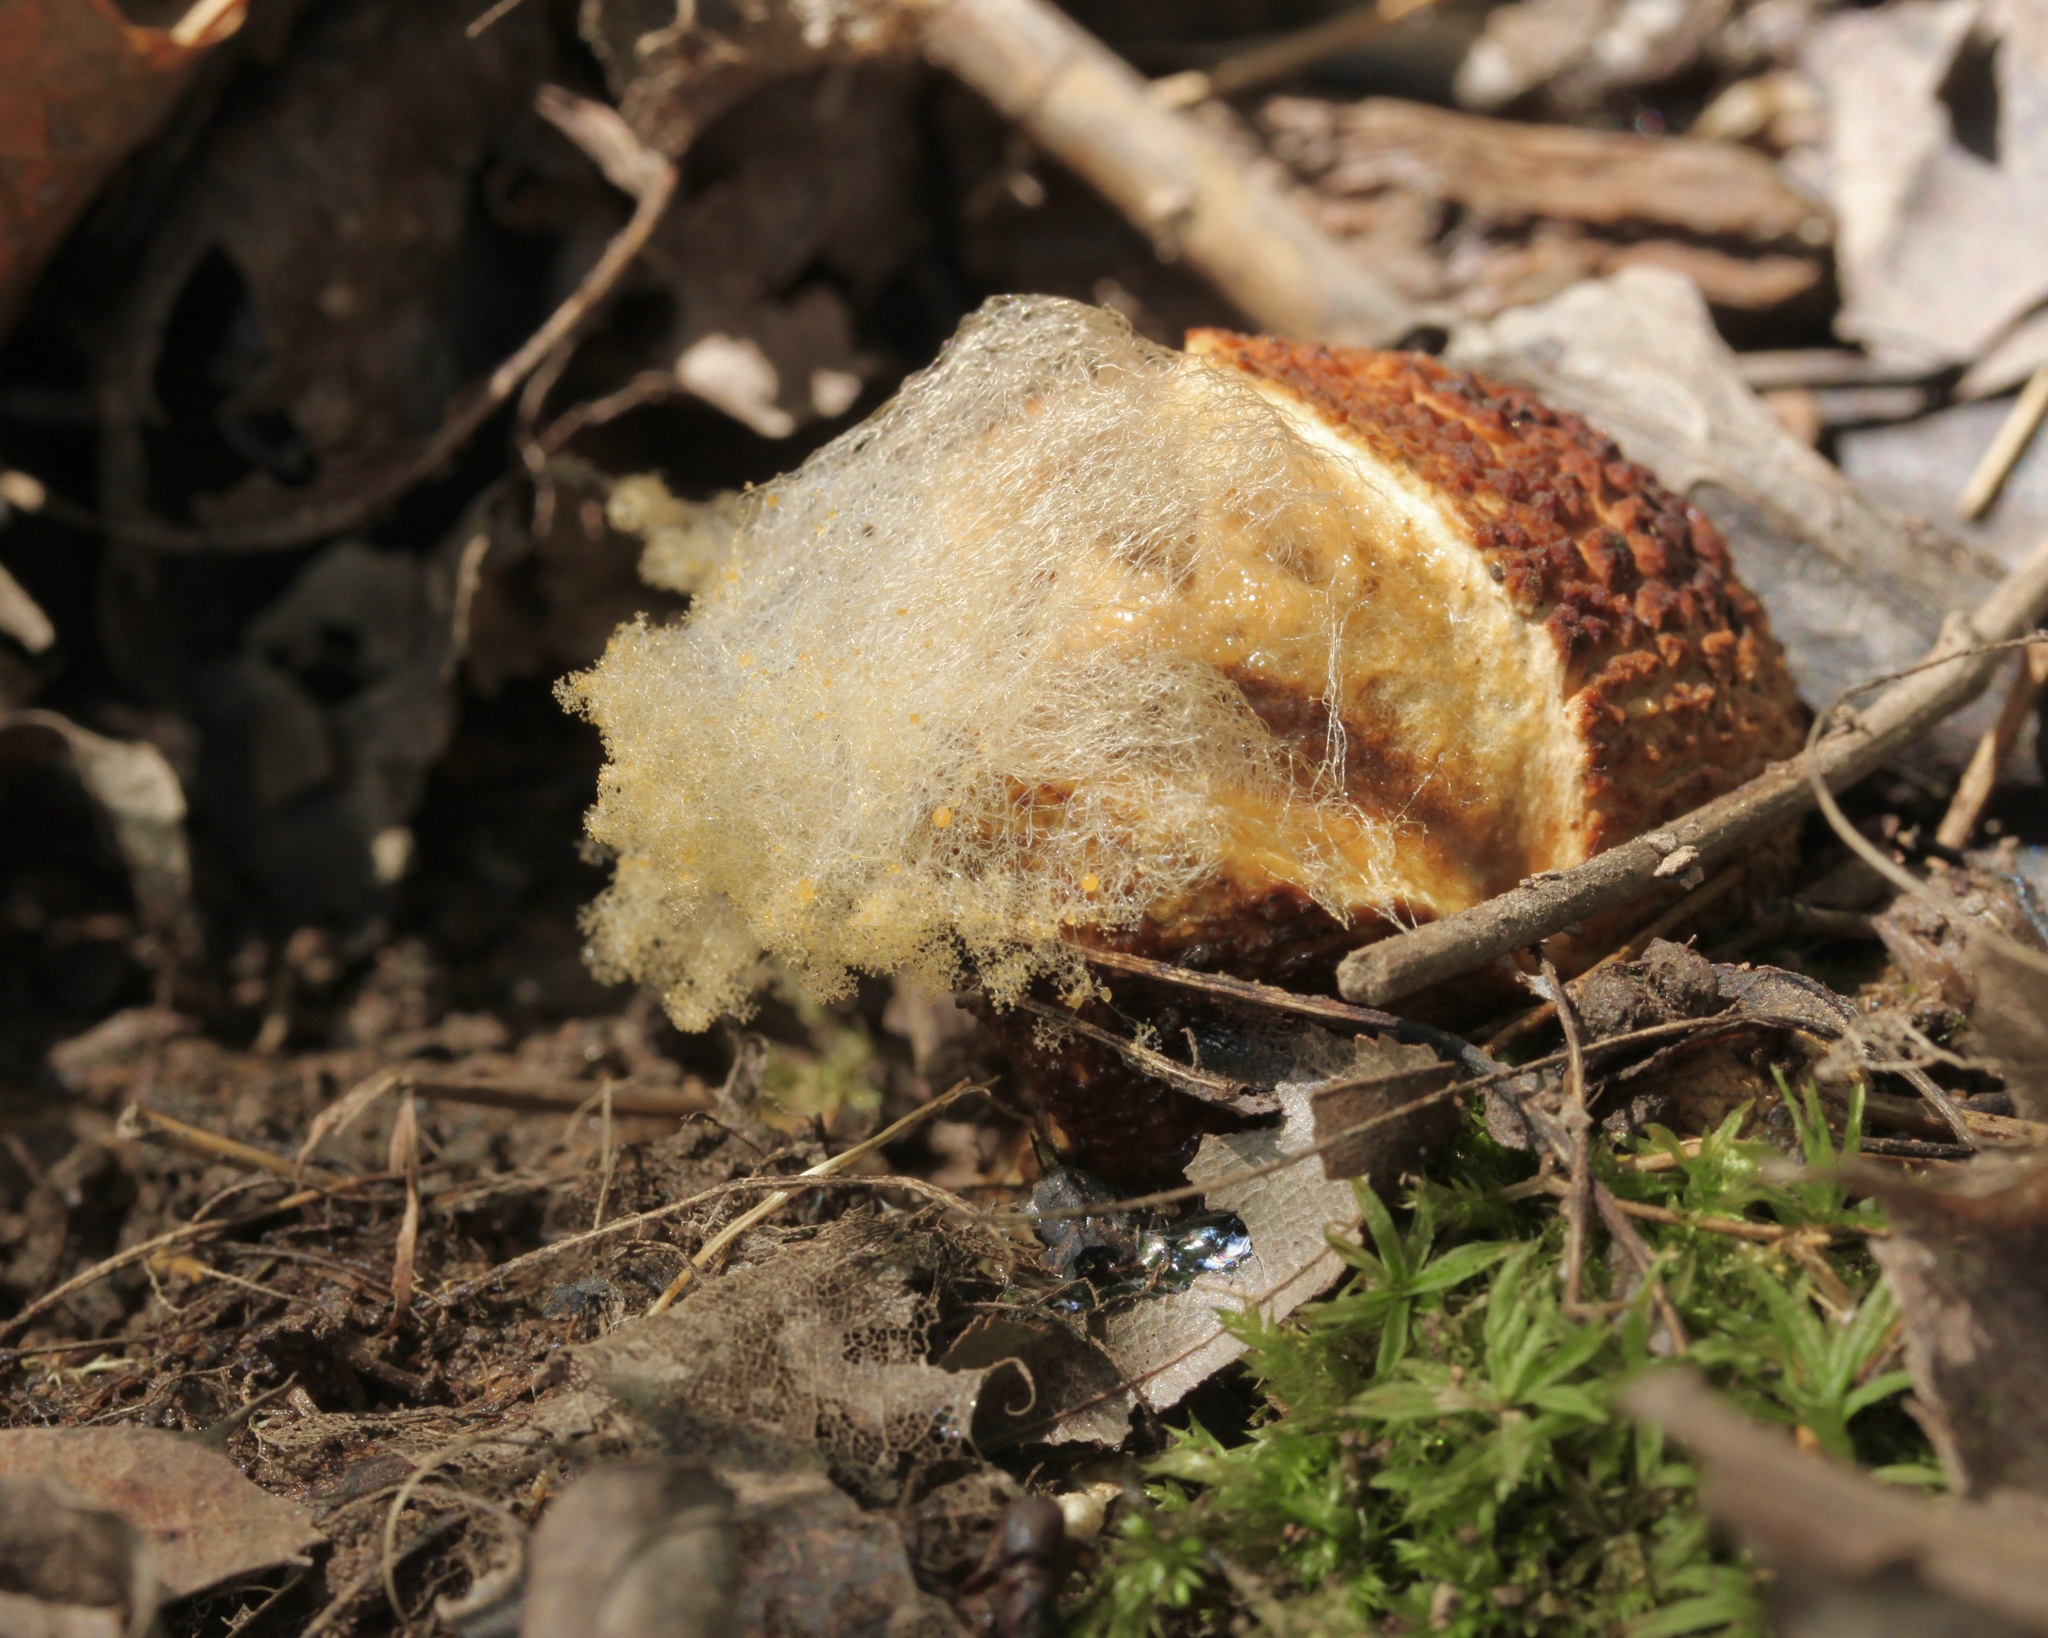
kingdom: Fungi
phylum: Mucoromycota
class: Mucoromycetes
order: Mucorales
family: Rhizopodaceae
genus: Syzygites
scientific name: Syzygites megalocarpus
